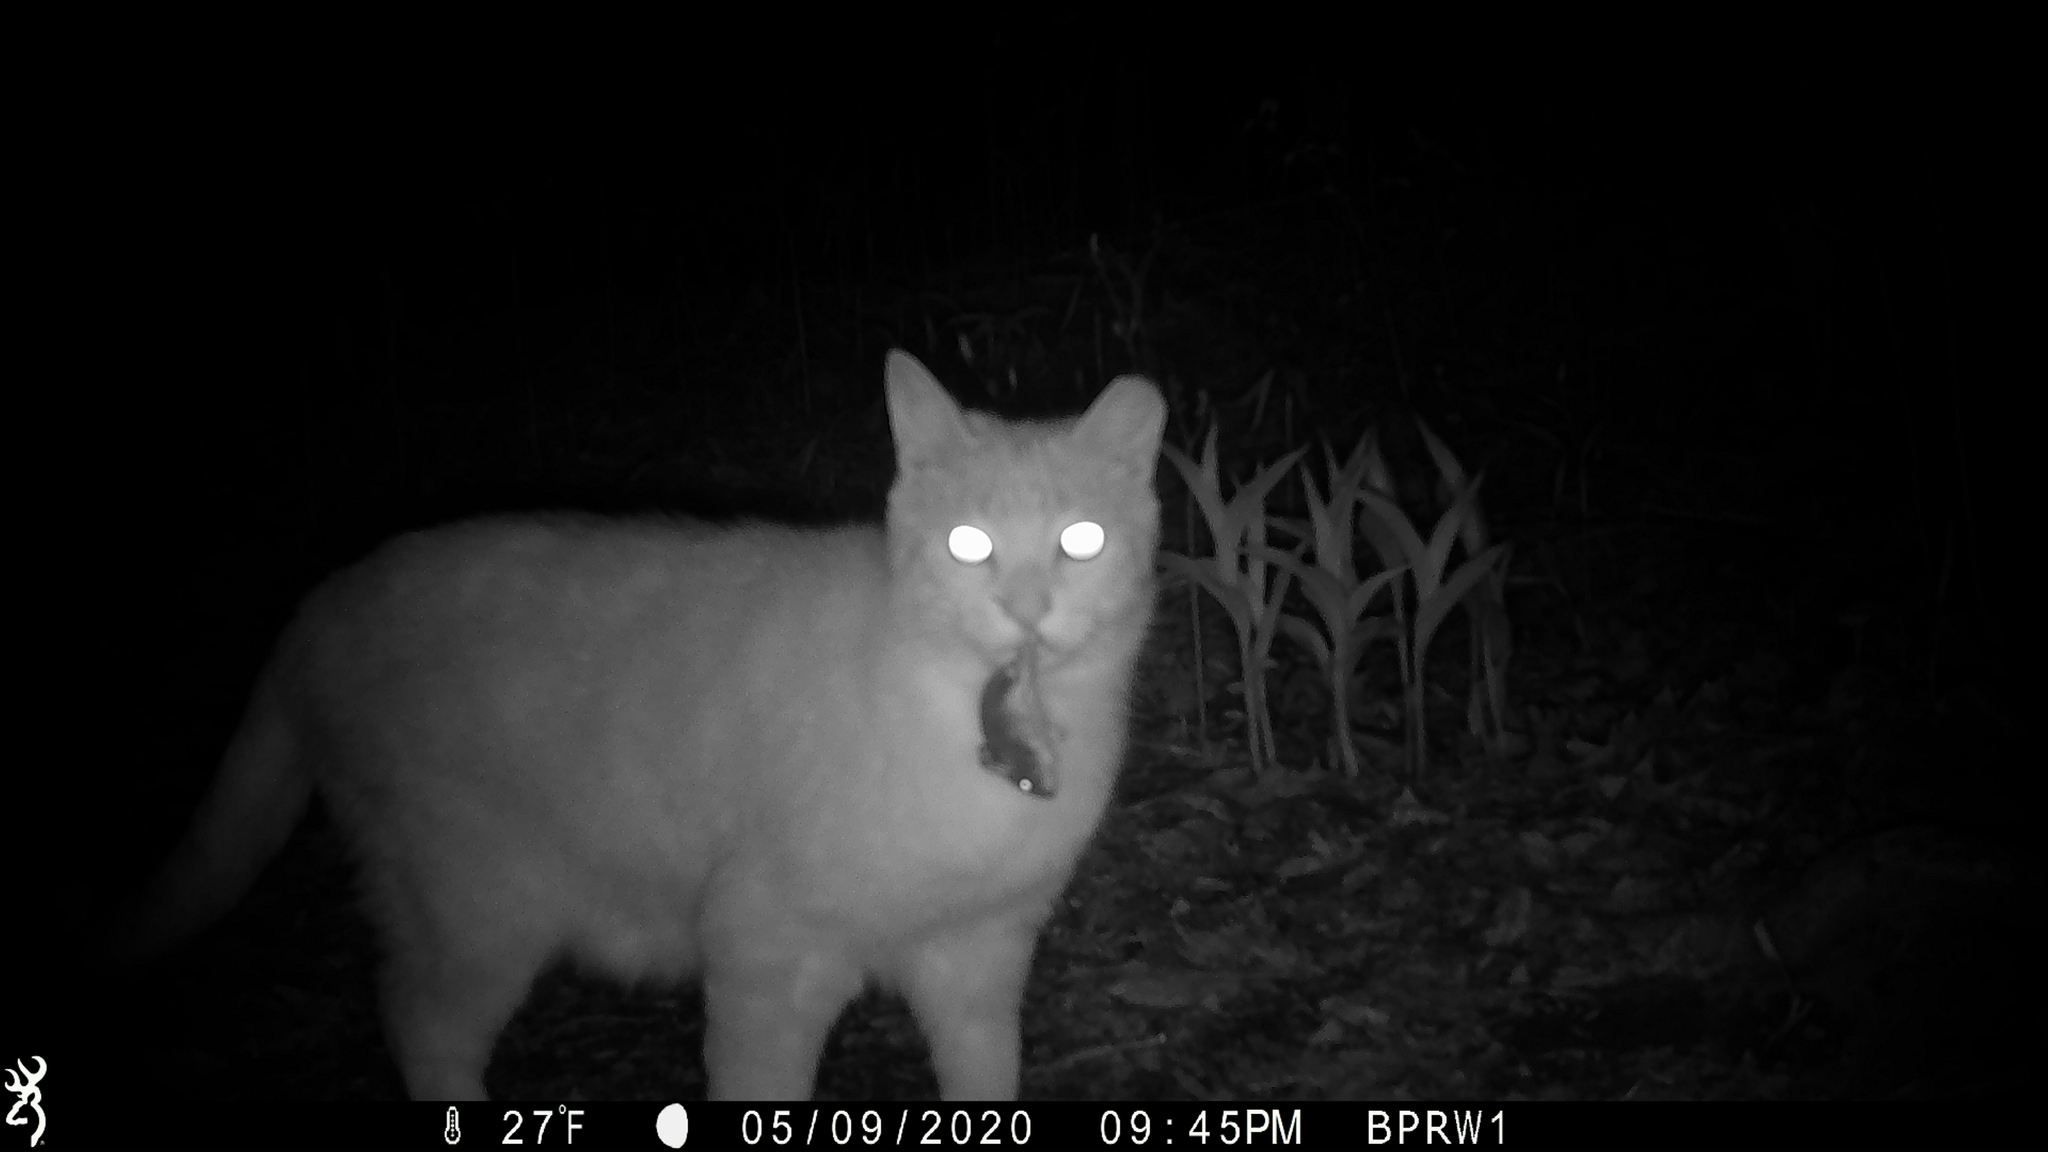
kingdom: Animalia
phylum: Chordata
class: Mammalia
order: Rodentia
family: Cricetidae
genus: Peromyscus
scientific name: Peromyscus
